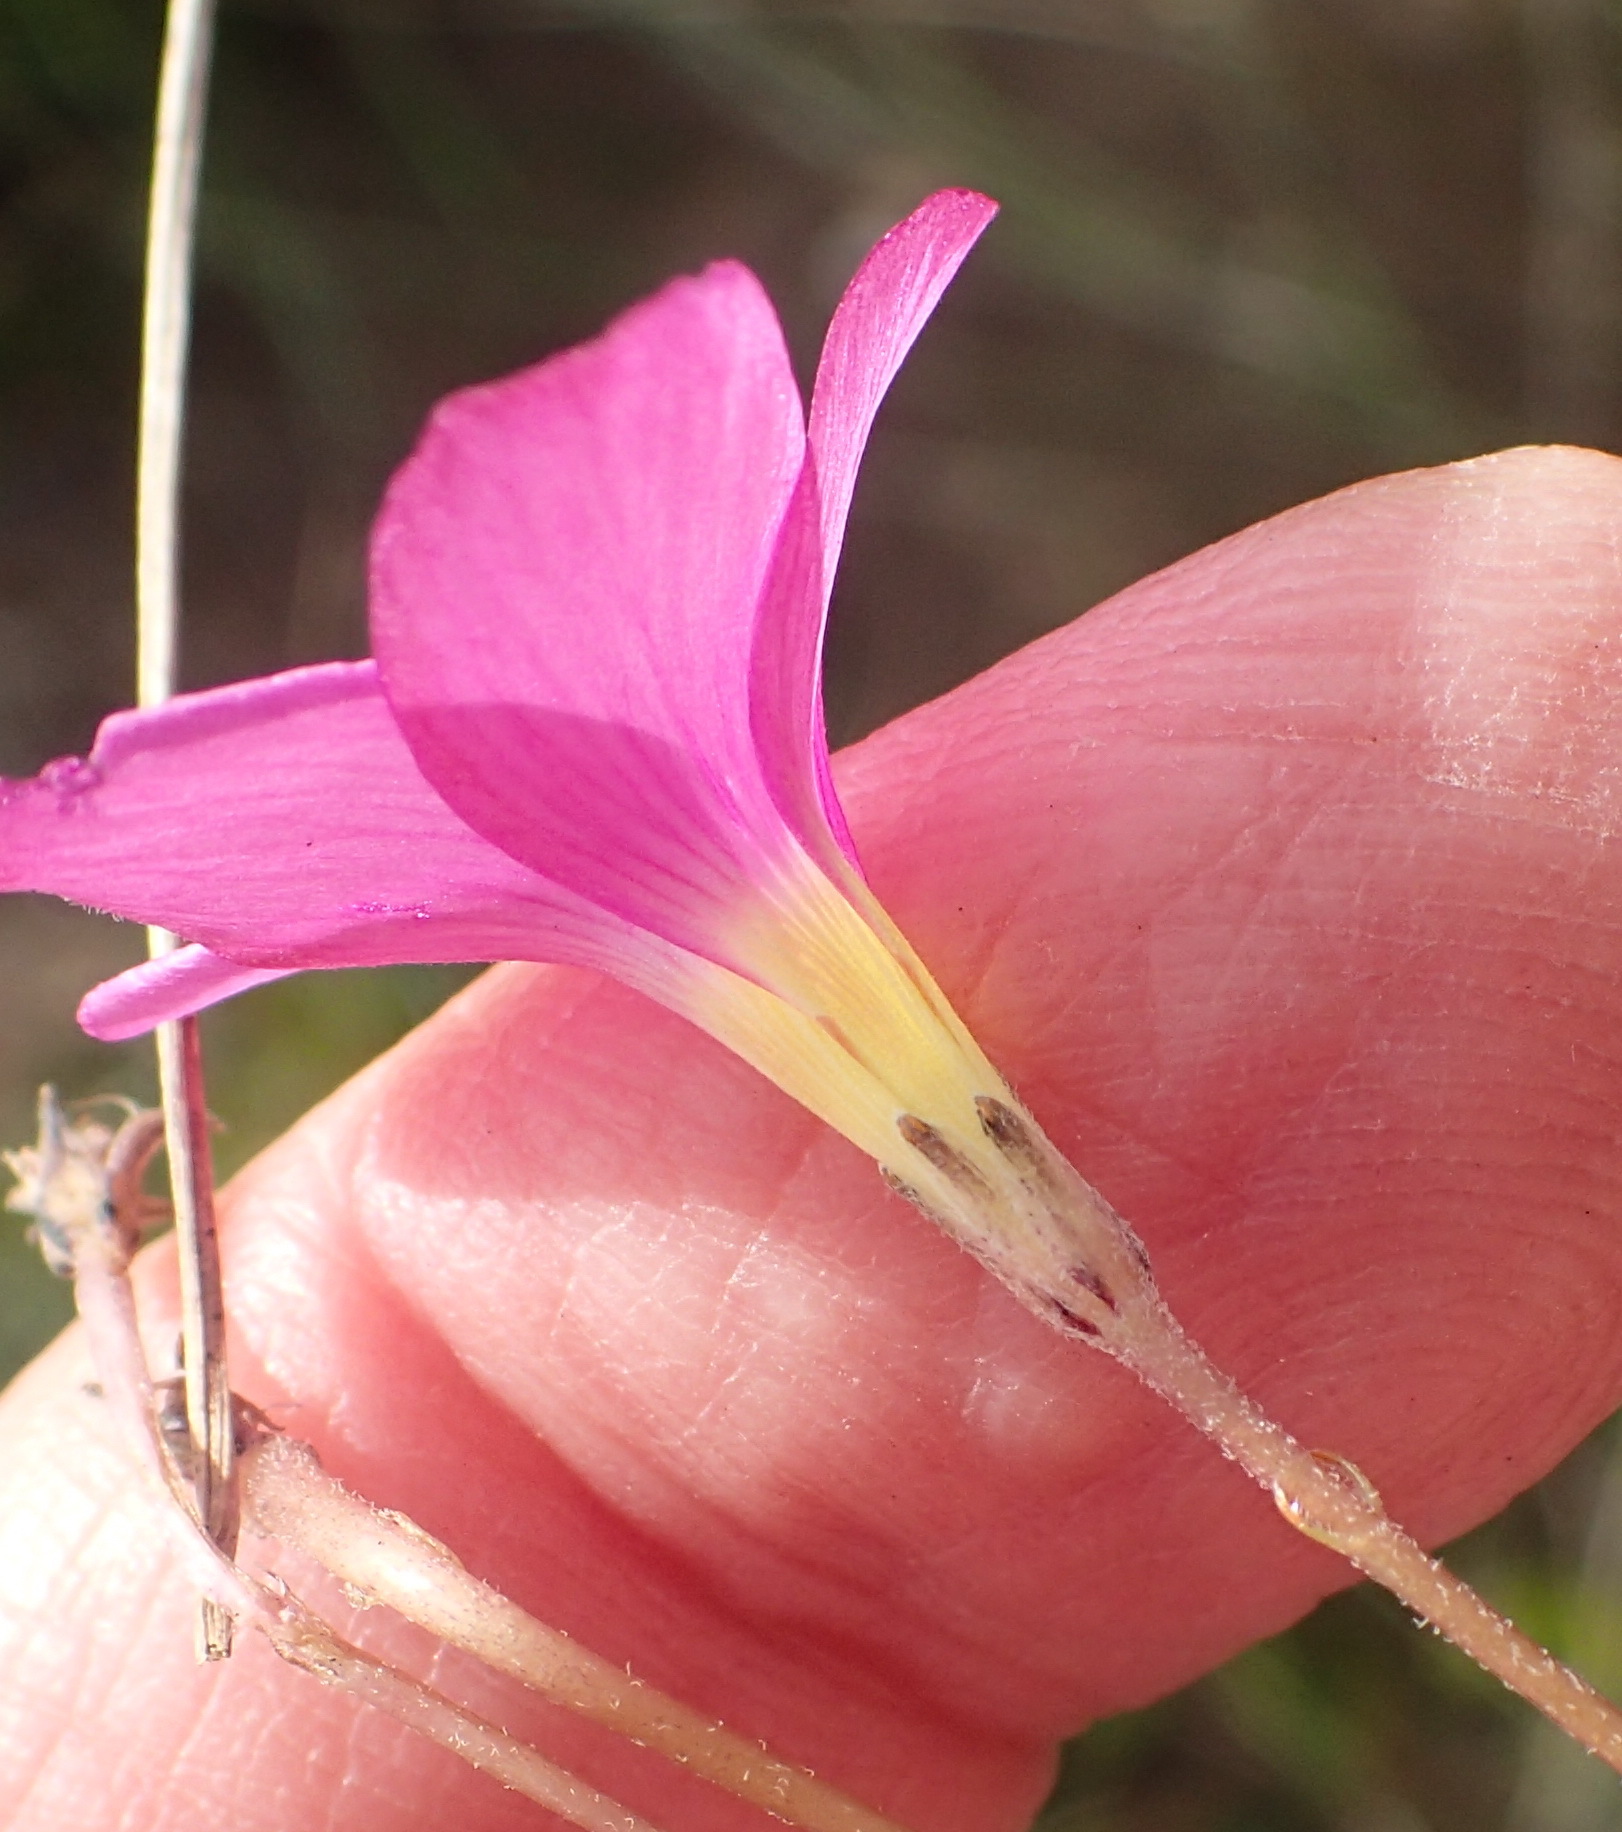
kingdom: Plantae
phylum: Tracheophyta
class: Magnoliopsida
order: Oxalidales
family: Oxalidaceae
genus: Oxalis
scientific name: Oxalis polyphylla
